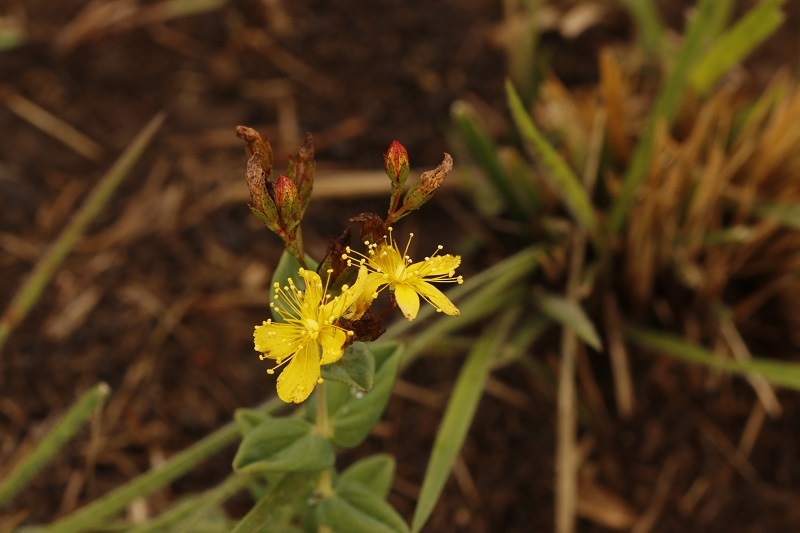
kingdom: Plantae
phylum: Tracheophyta
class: Magnoliopsida
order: Malpighiales
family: Hypericaceae
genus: Hypericum
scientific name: Hypericum aethiopicum
